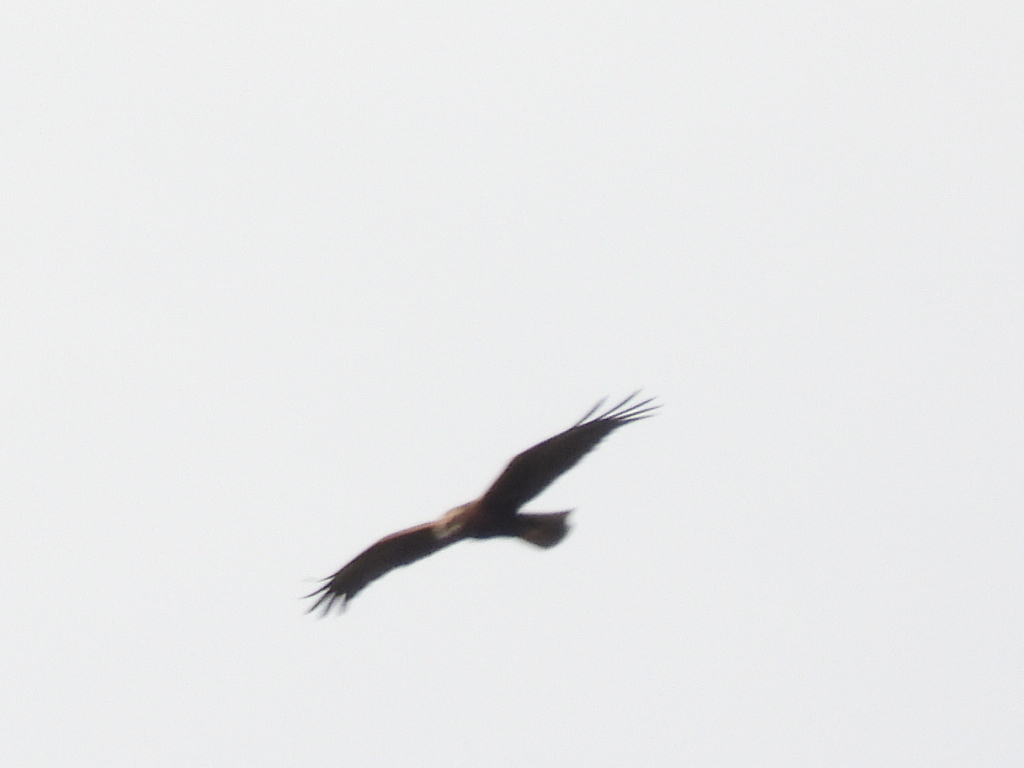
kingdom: Animalia
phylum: Chordata
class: Aves
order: Accipitriformes
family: Accipitridae
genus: Circus
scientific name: Circus aeruginosus
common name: Western marsh harrier
